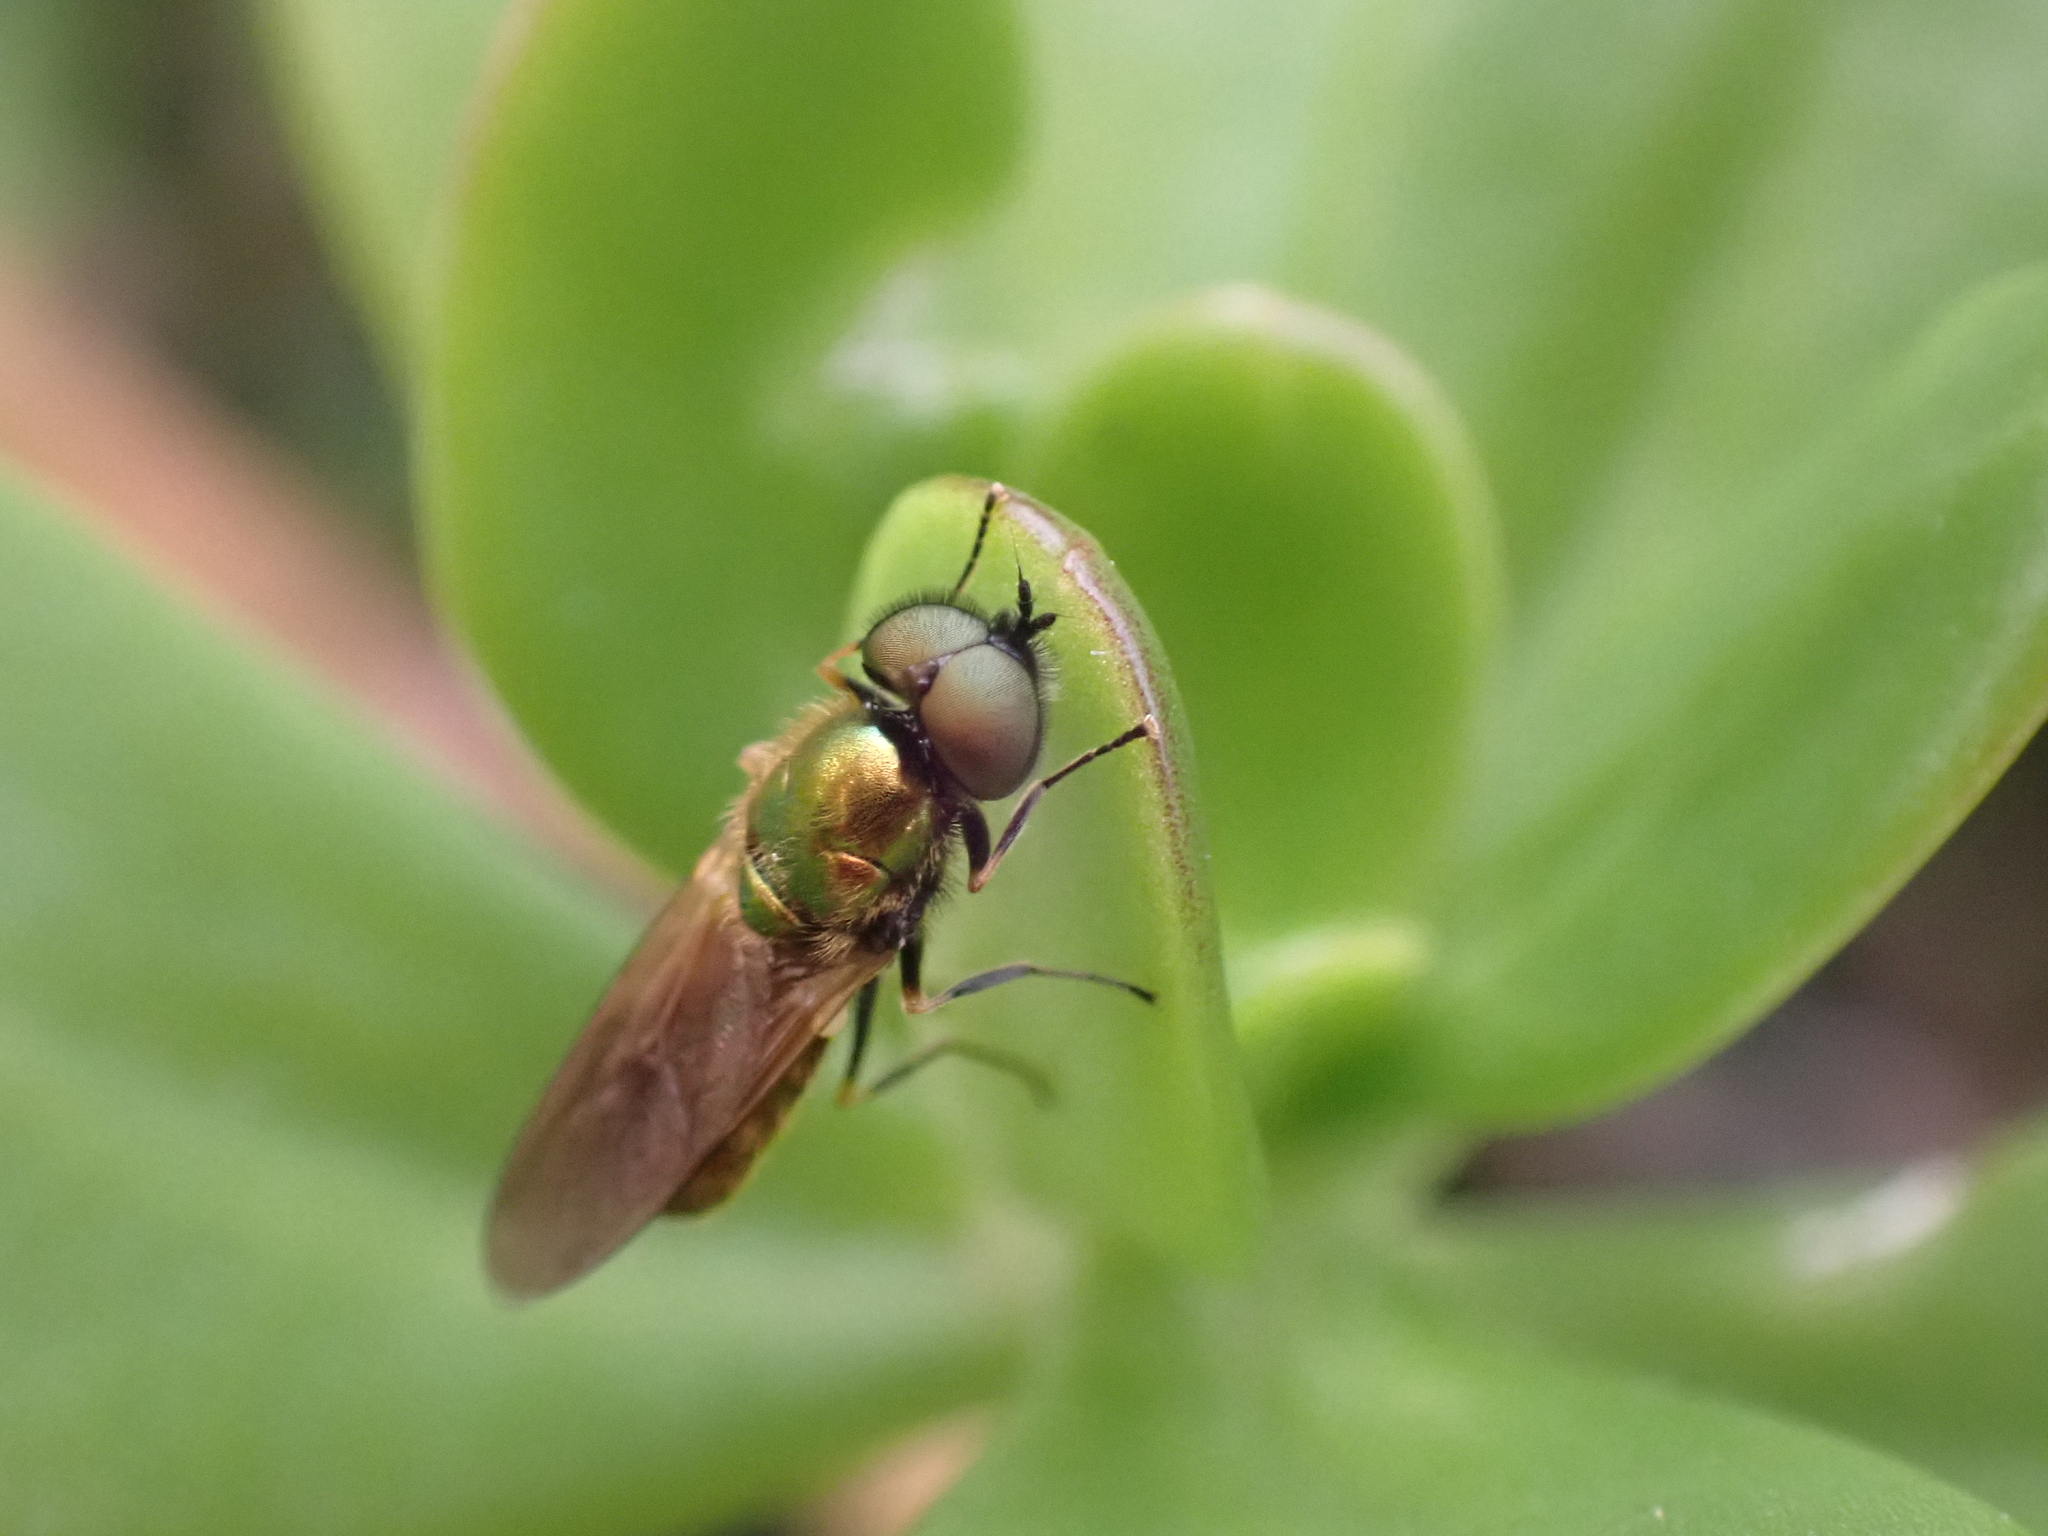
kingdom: Animalia
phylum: Arthropoda
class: Insecta
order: Diptera
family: Stratiomyidae
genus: Chloromyia
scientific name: Chloromyia formosa
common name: Soldier fly
